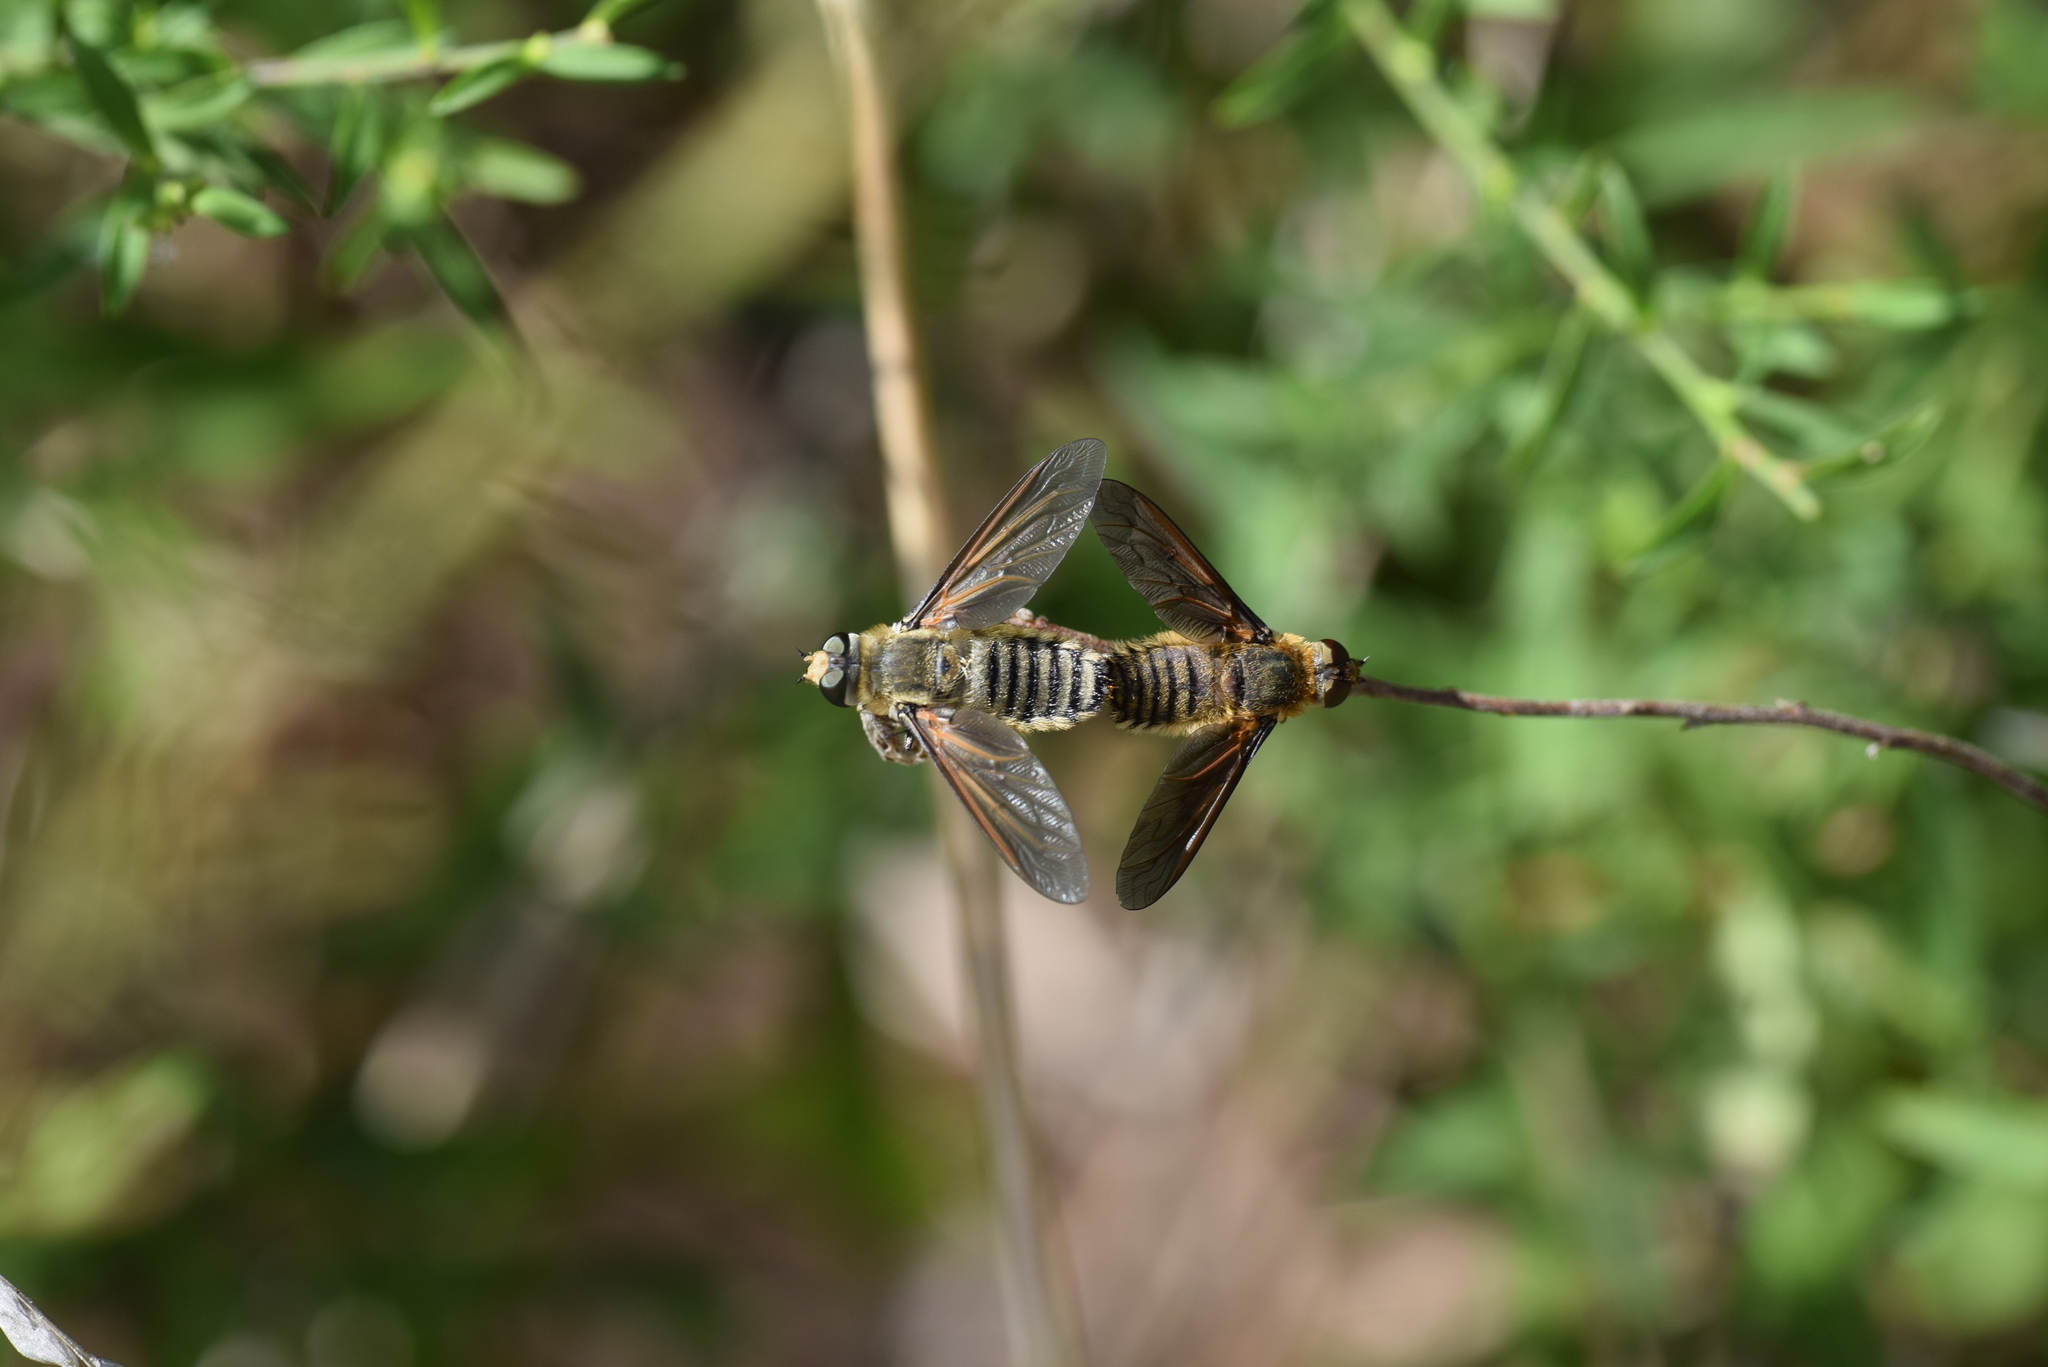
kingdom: Animalia
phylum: Arthropoda
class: Insecta
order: Diptera
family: Bombyliidae
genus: Poecilanthrax
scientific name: Poecilanthrax lucifer
